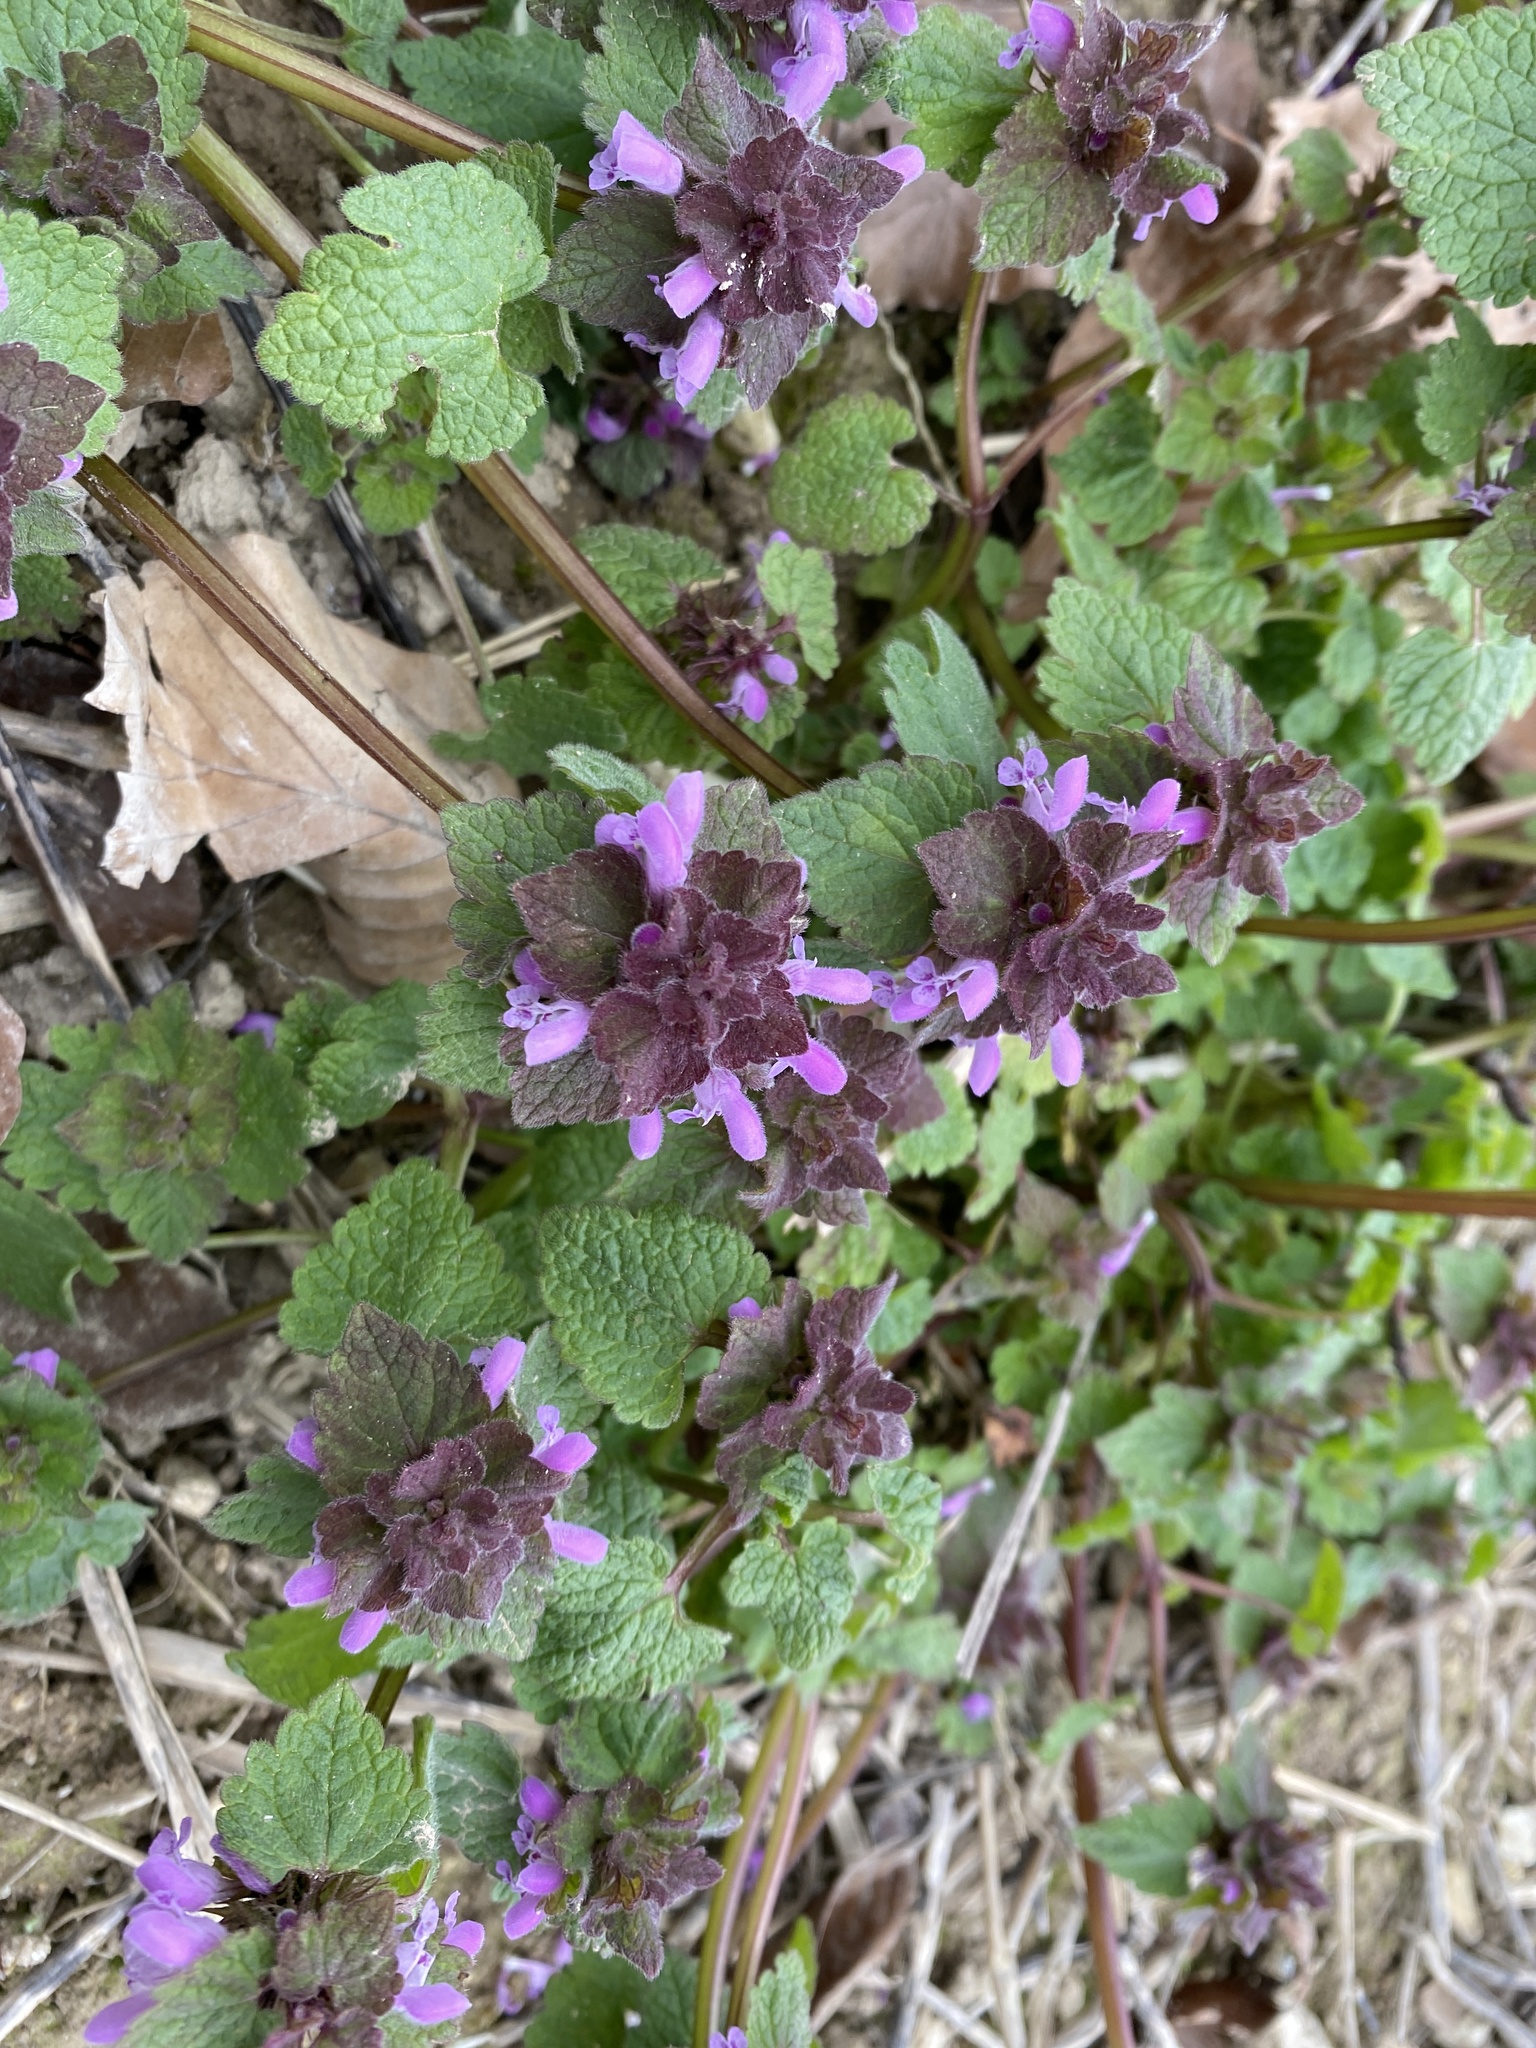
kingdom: Plantae
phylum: Tracheophyta
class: Magnoliopsida
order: Lamiales
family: Lamiaceae
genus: Lamium
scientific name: Lamium purpureum
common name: Red dead-nettle
